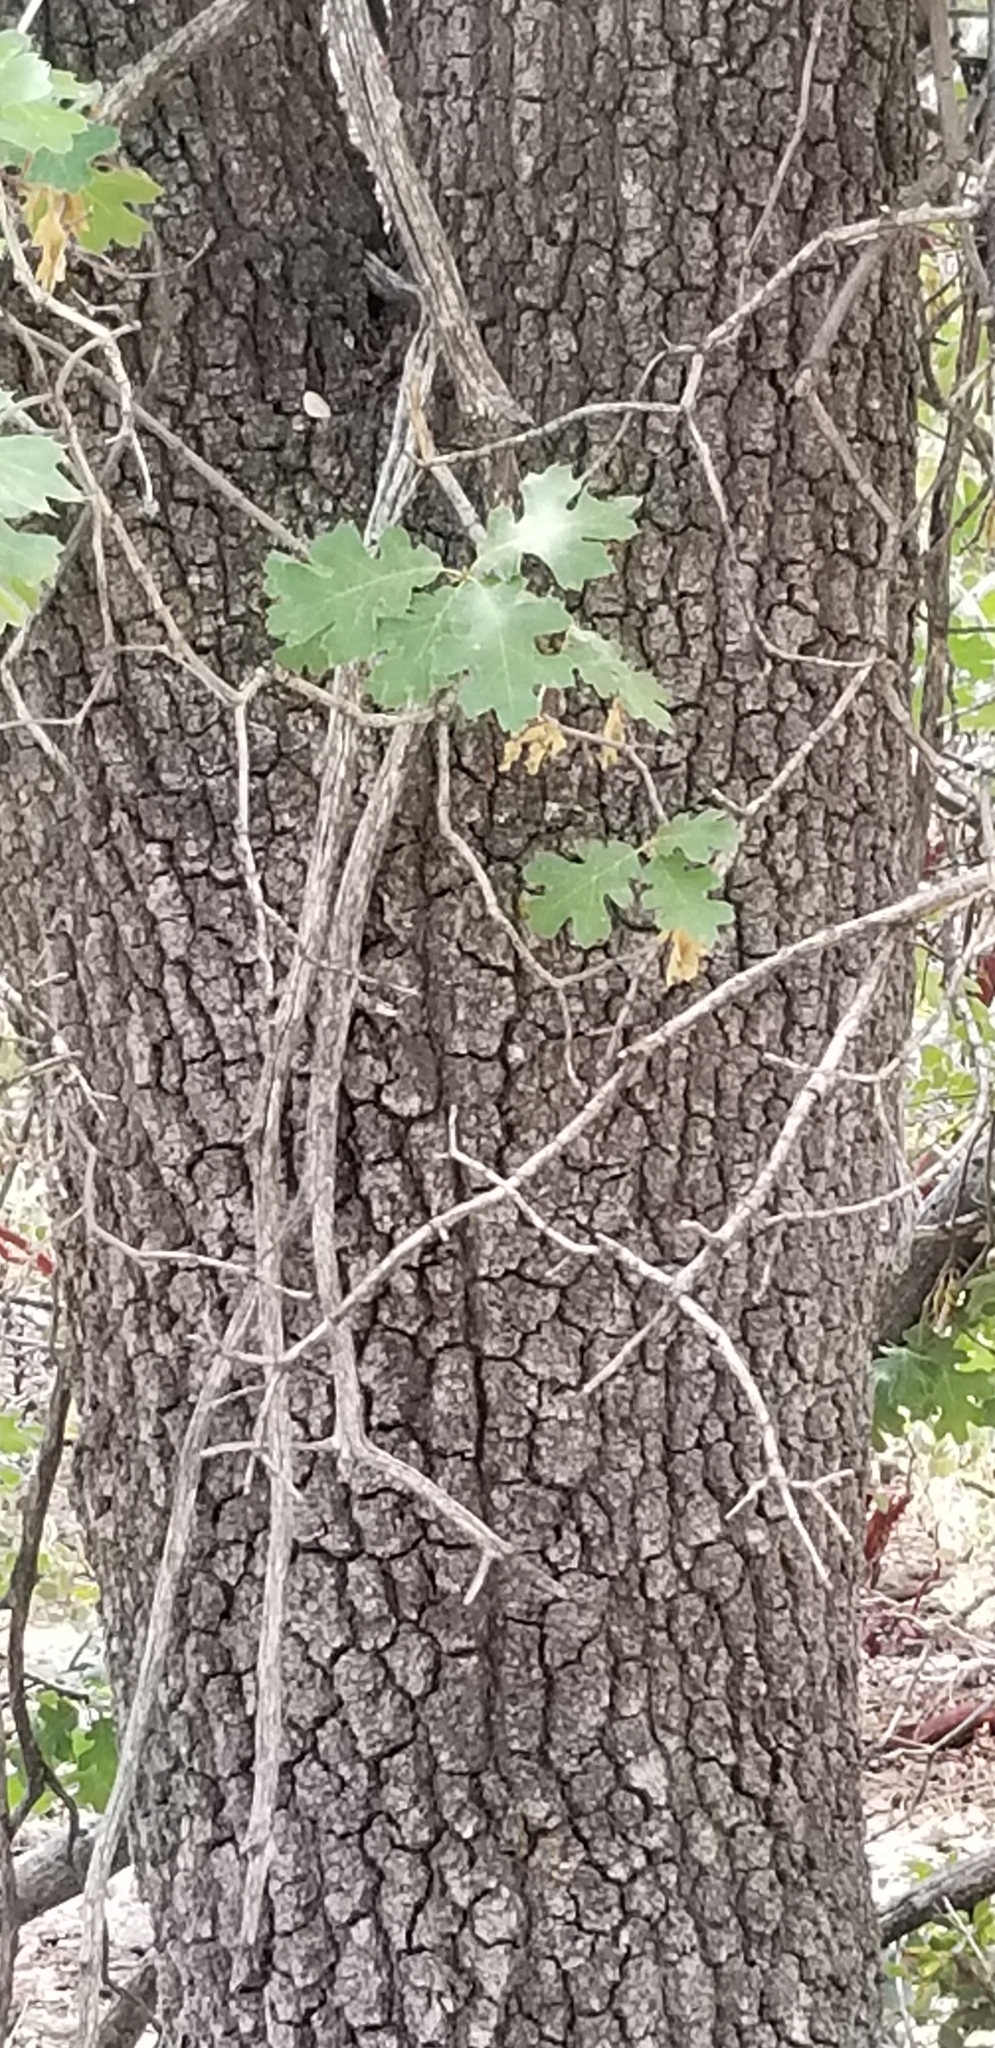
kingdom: Plantae
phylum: Tracheophyta
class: Magnoliopsida
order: Fagales
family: Fagaceae
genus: Quercus
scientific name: Quercus kelloggii
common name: California black oak
